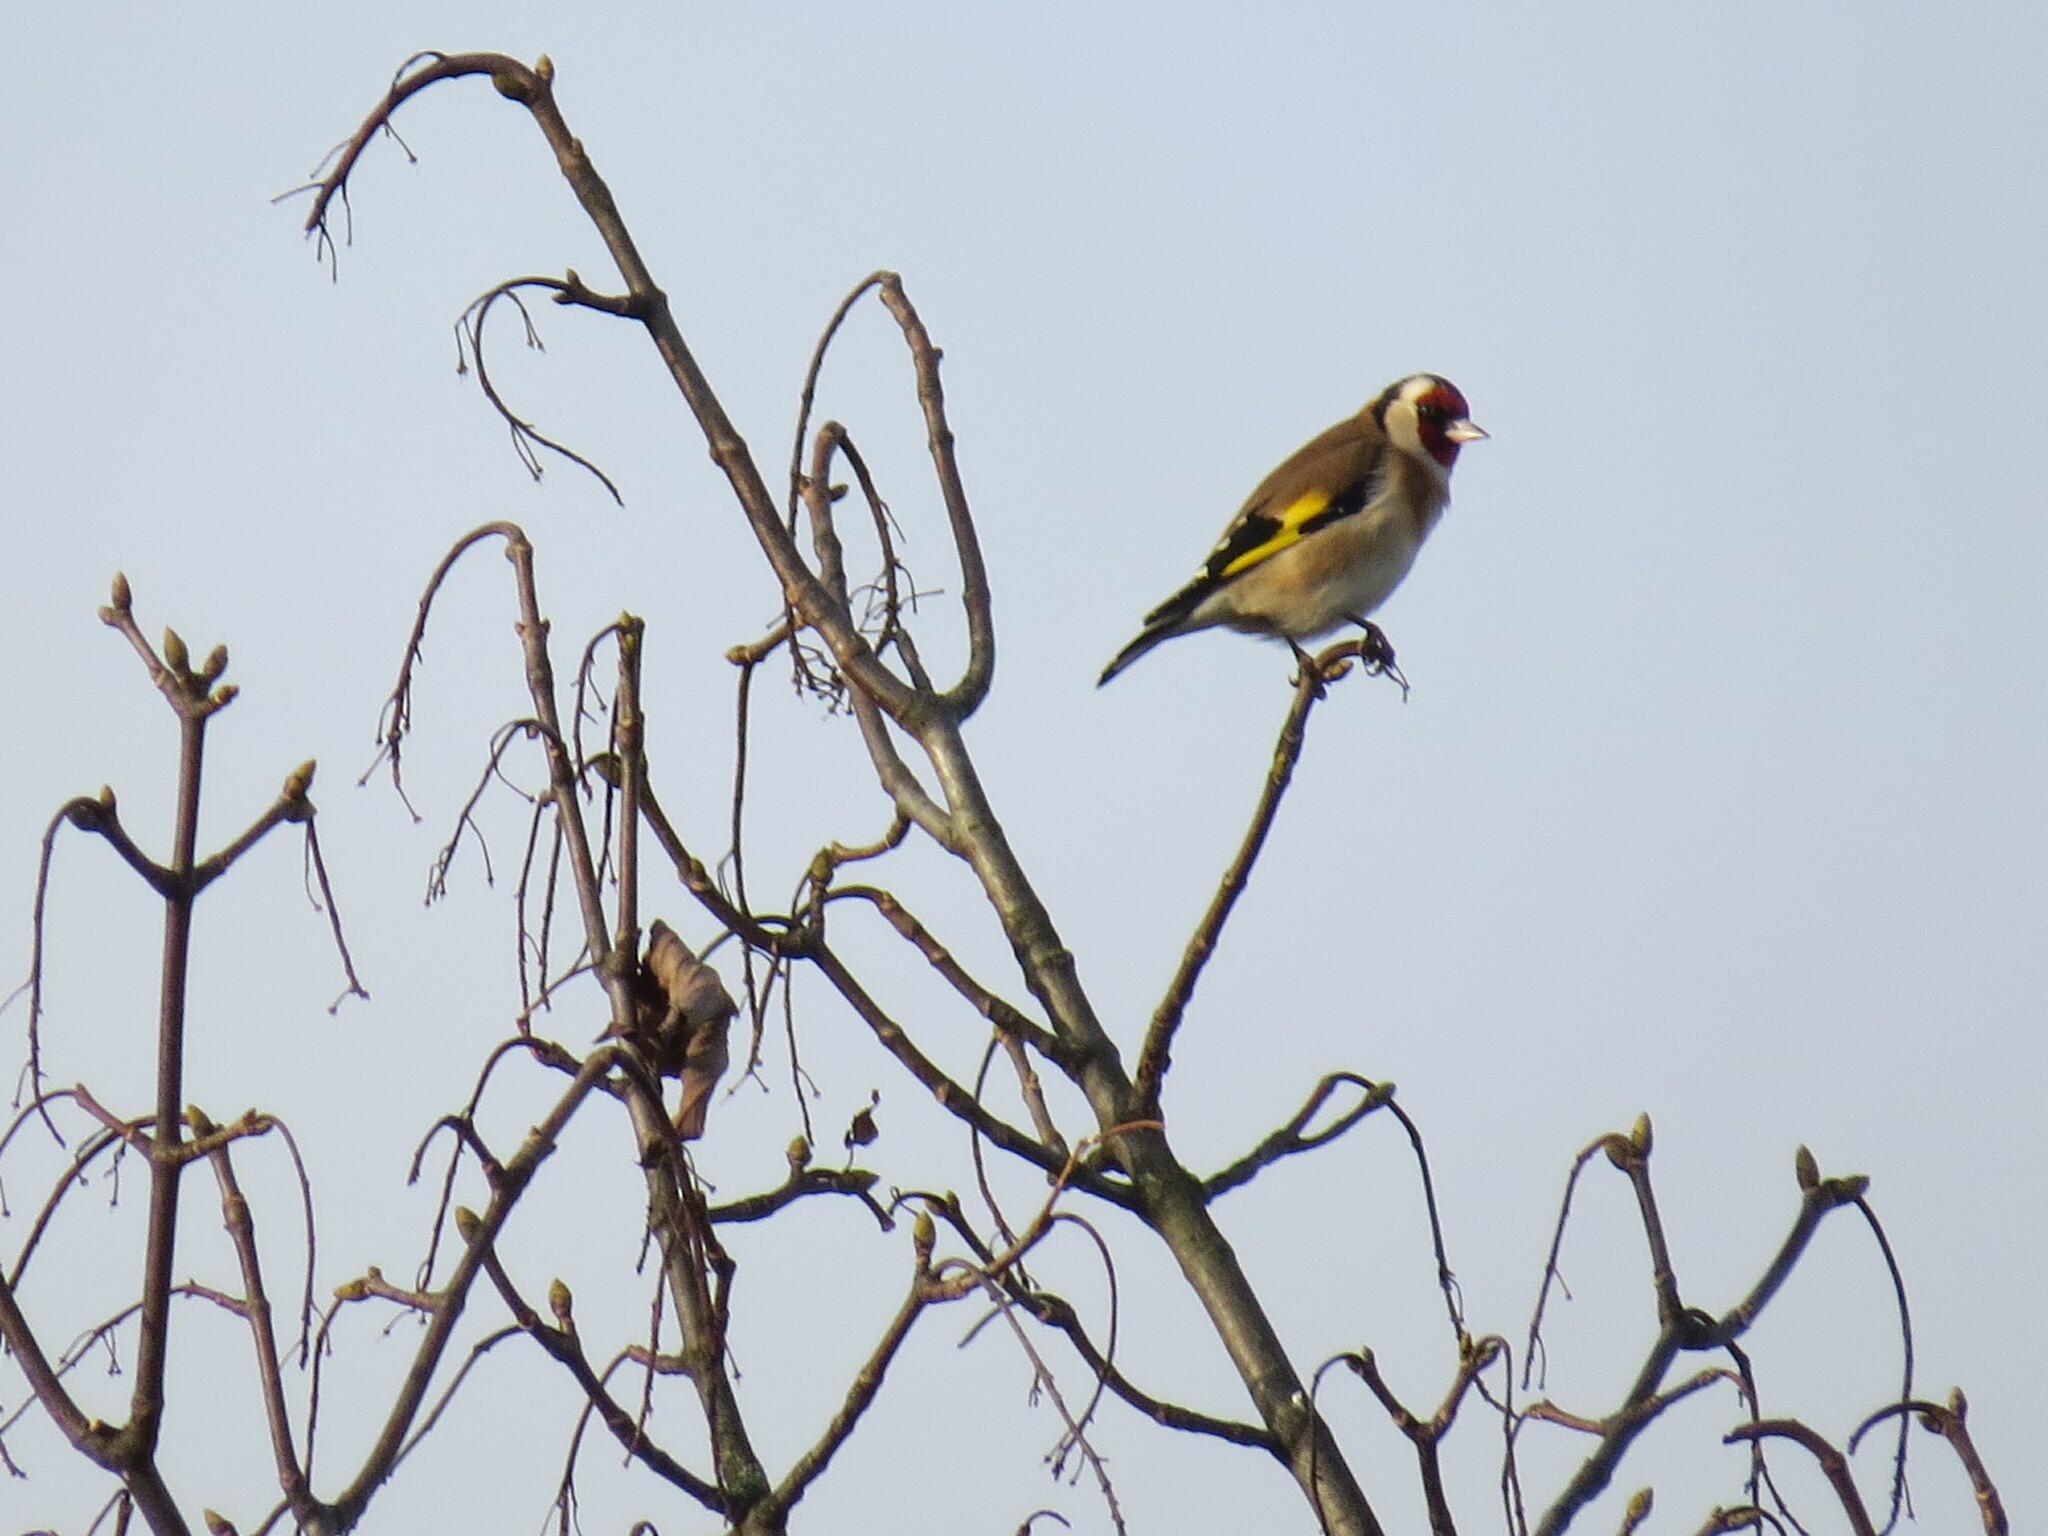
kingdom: Animalia
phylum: Chordata
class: Aves
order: Passeriformes
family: Fringillidae
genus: Carduelis
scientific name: Carduelis carduelis
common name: European goldfinch
